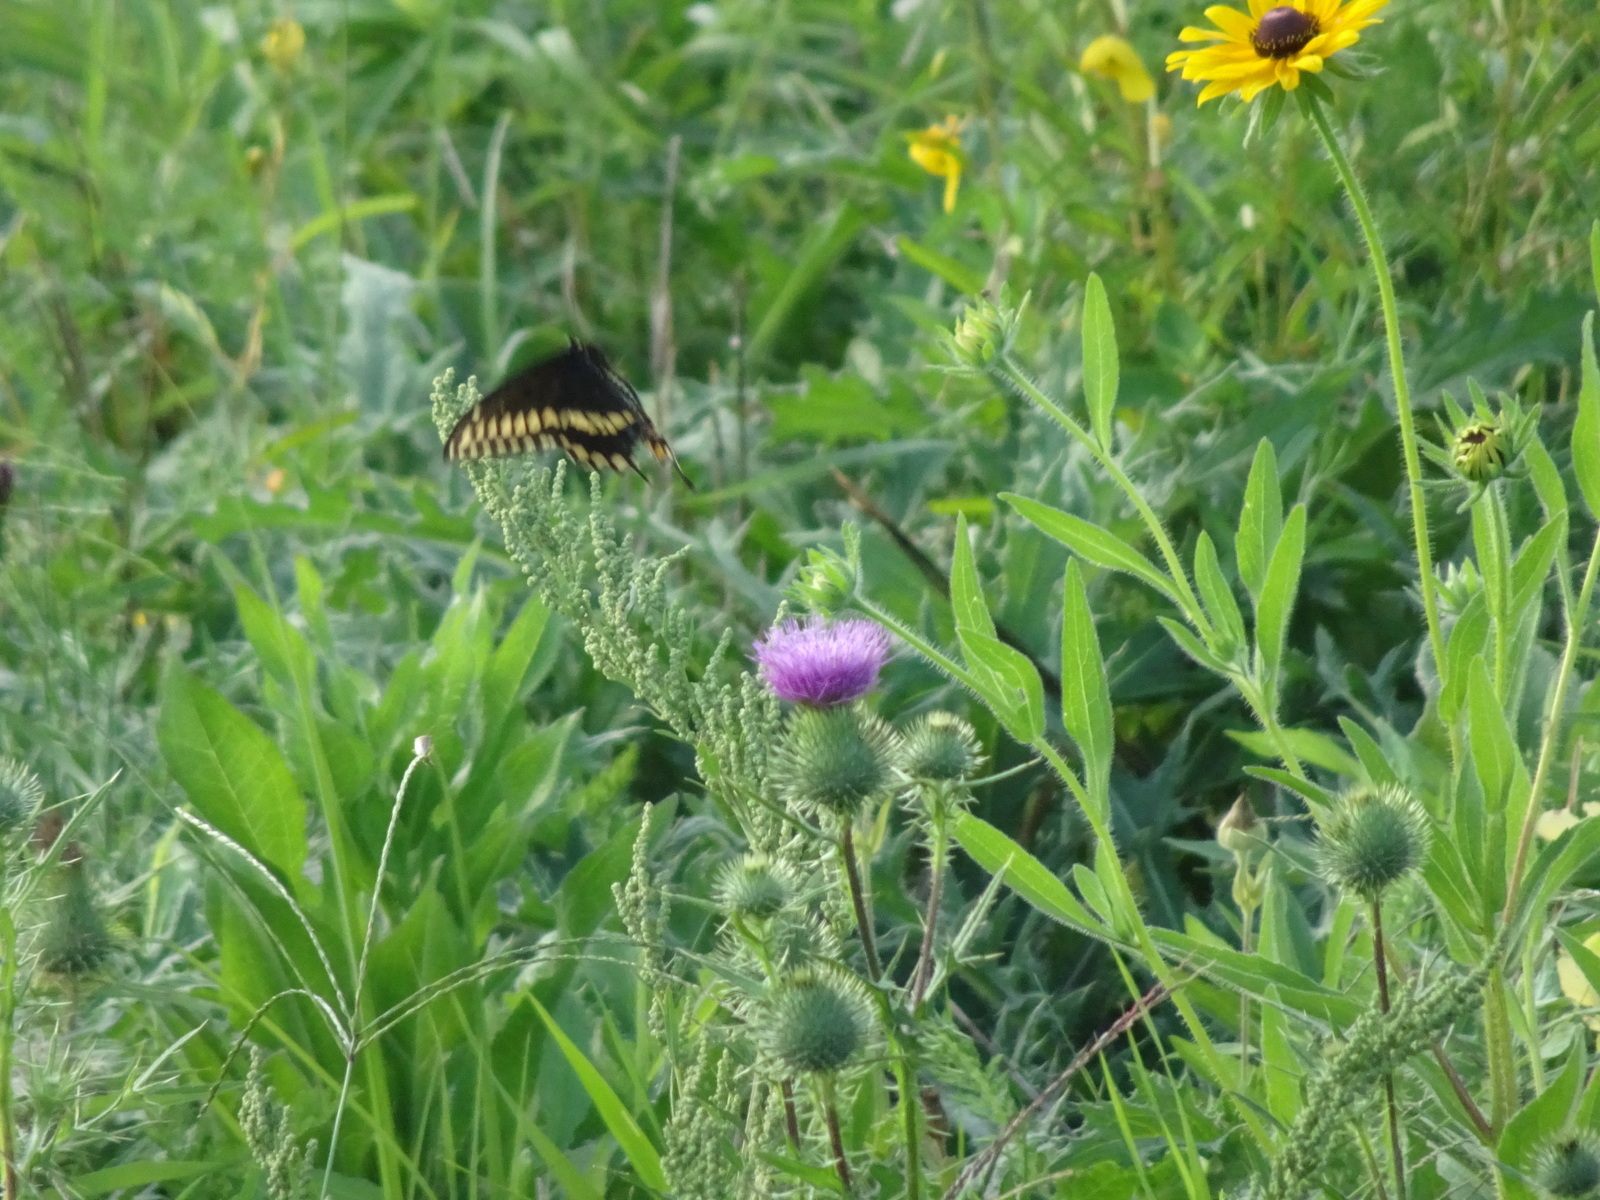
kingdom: Animalia
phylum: Arthropoda
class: Insecta
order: Lepidoptera
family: Papilionidae
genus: Papilio
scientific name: Papilio polyxenes
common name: Black swallowtail
